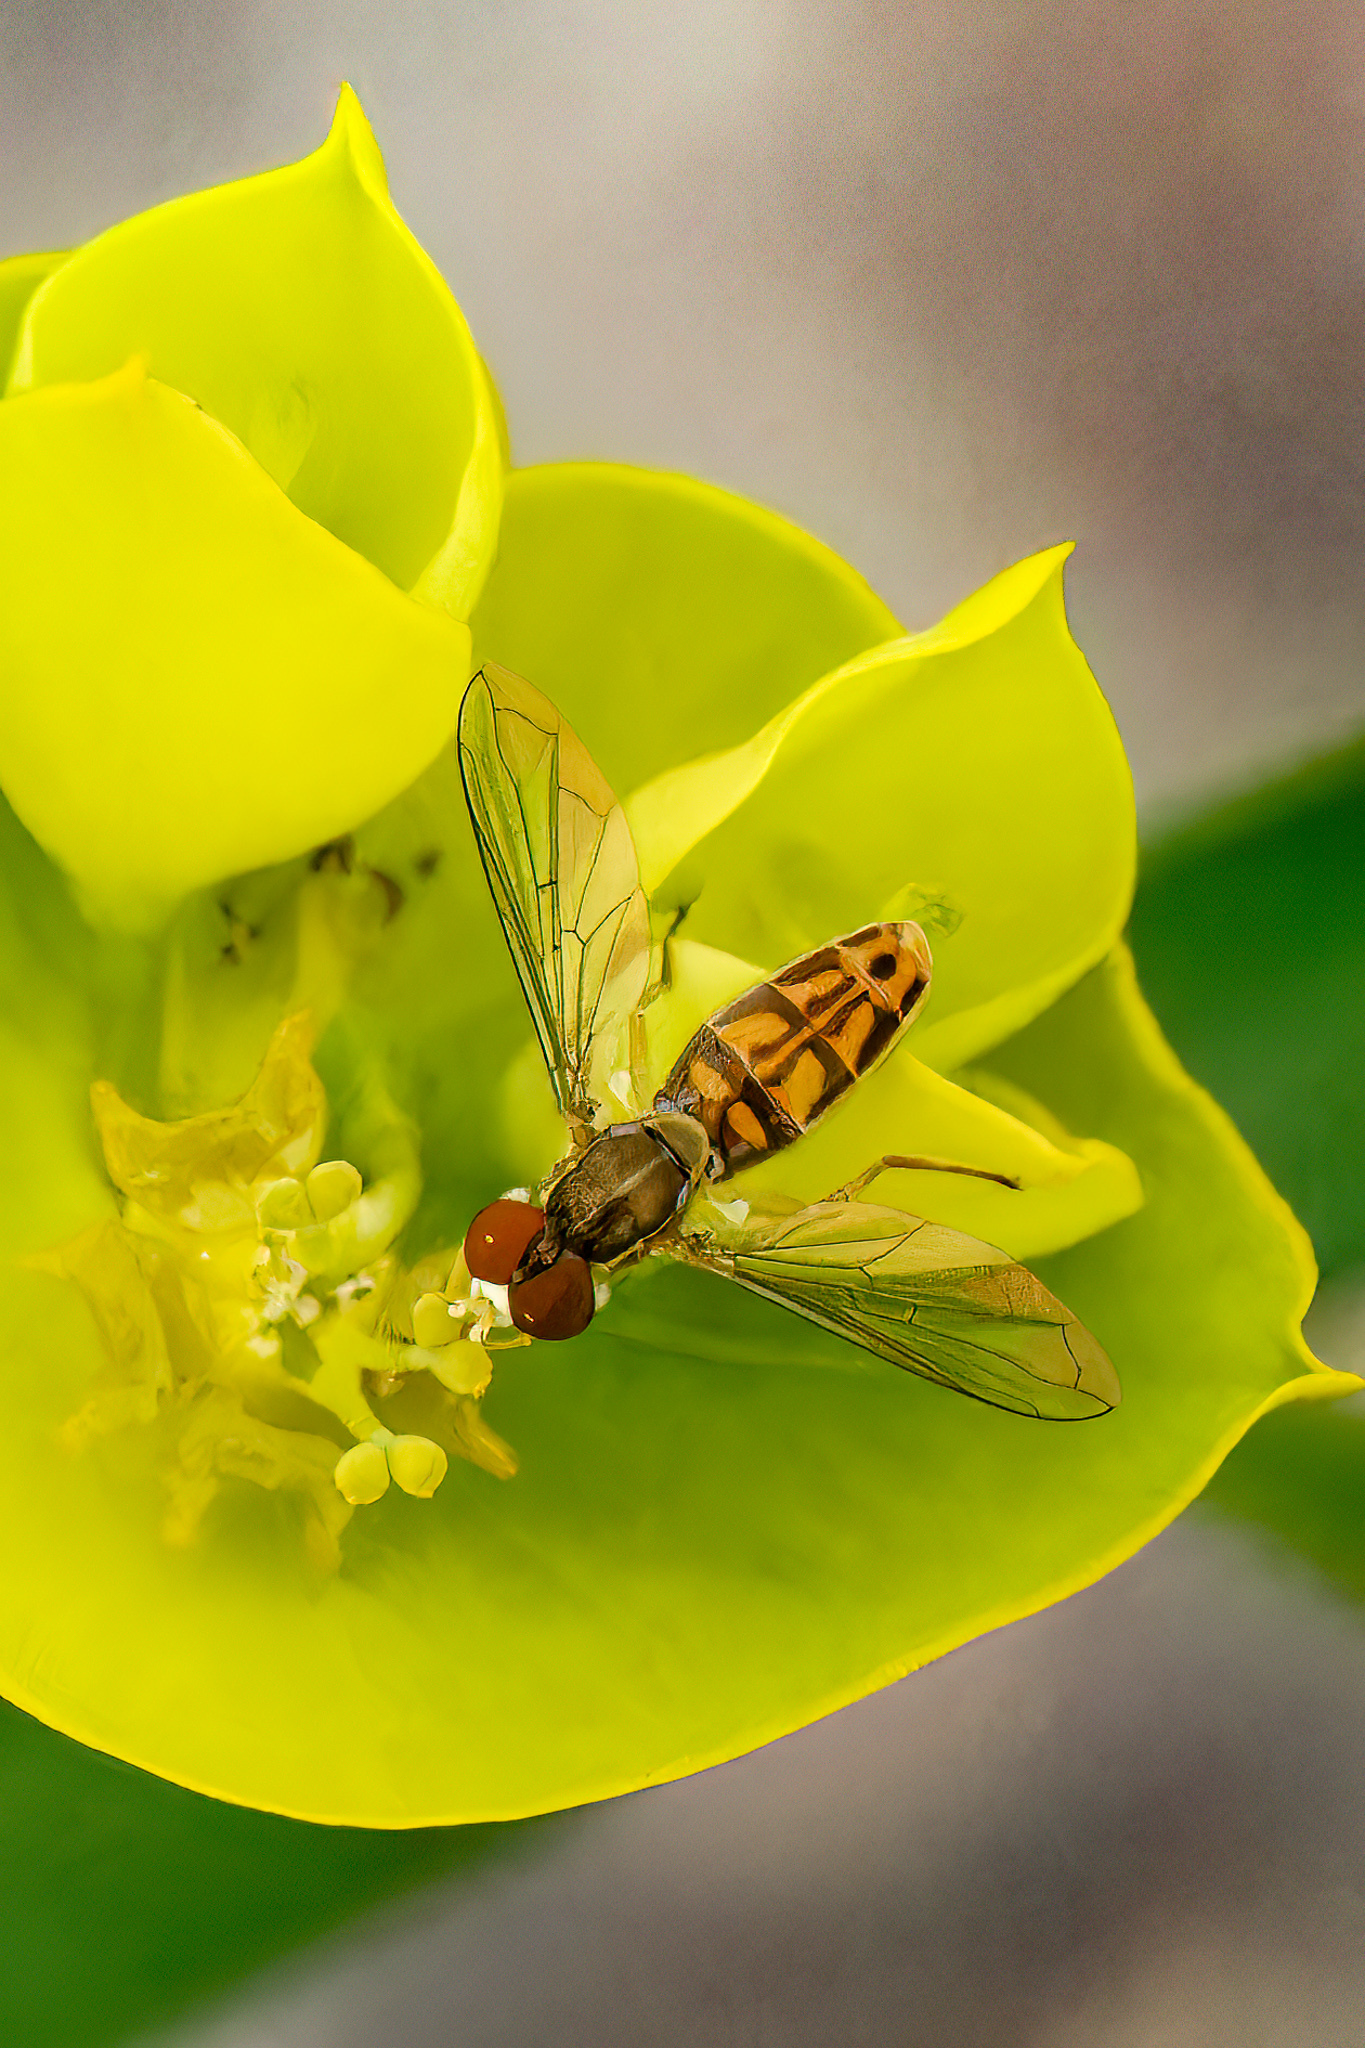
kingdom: Animalia
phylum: Arthropoda
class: Insecta
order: Diptera
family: Syrphidae
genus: Toxomerus
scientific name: Toxomerus marginatus
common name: Syrphid fly
